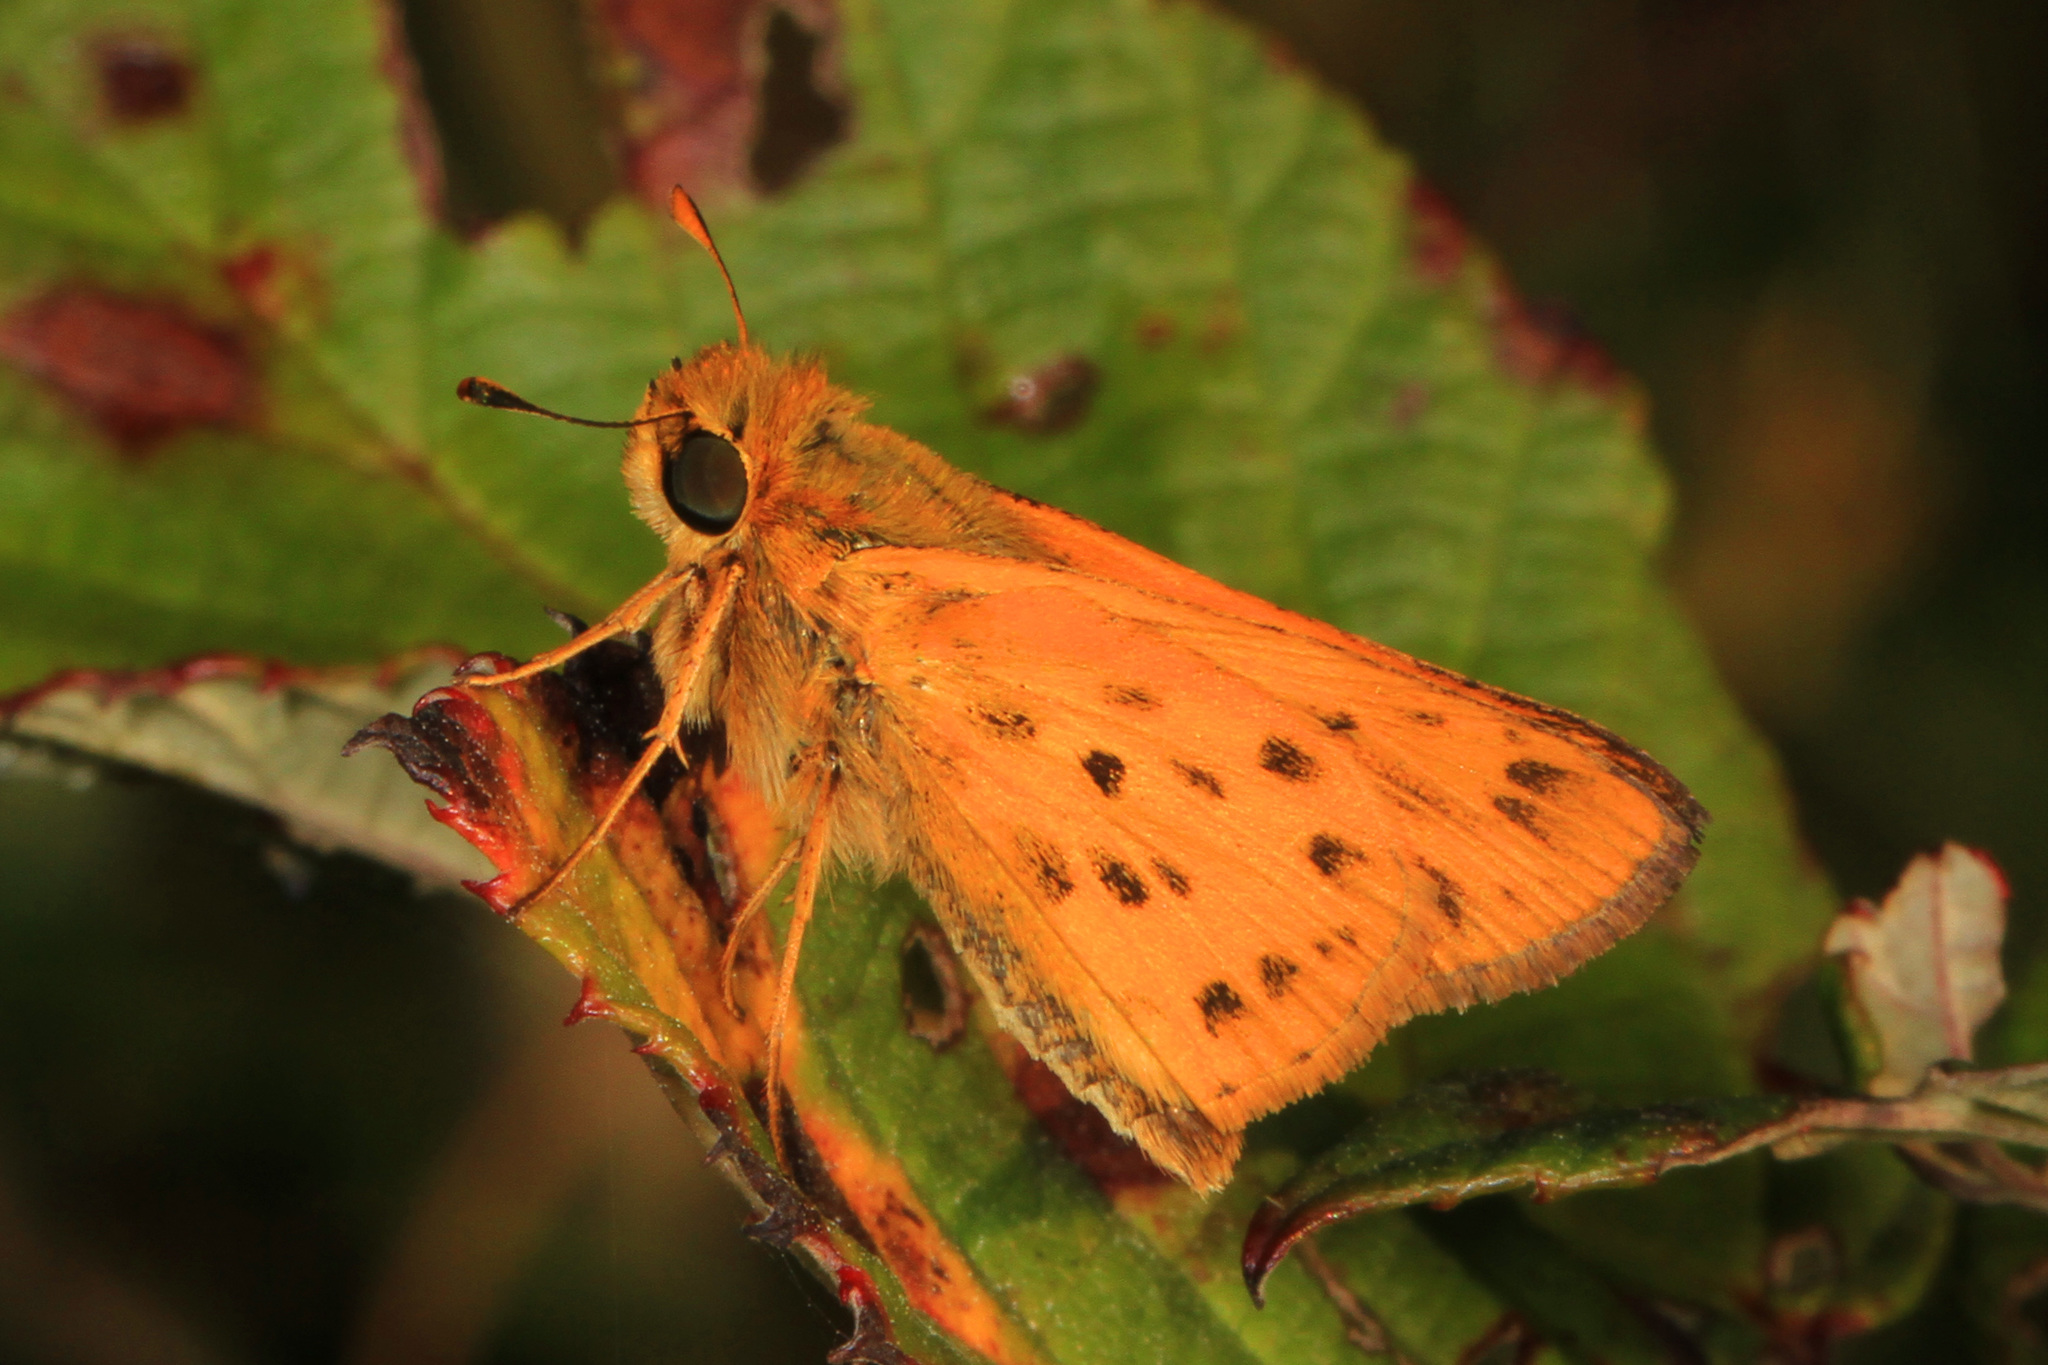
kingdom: Animalia
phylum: Arthropoda
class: Insecta
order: Lepidoptera
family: Hesperiidae
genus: Hylephila
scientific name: Hylephila phyleus
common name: Fiery skipper
